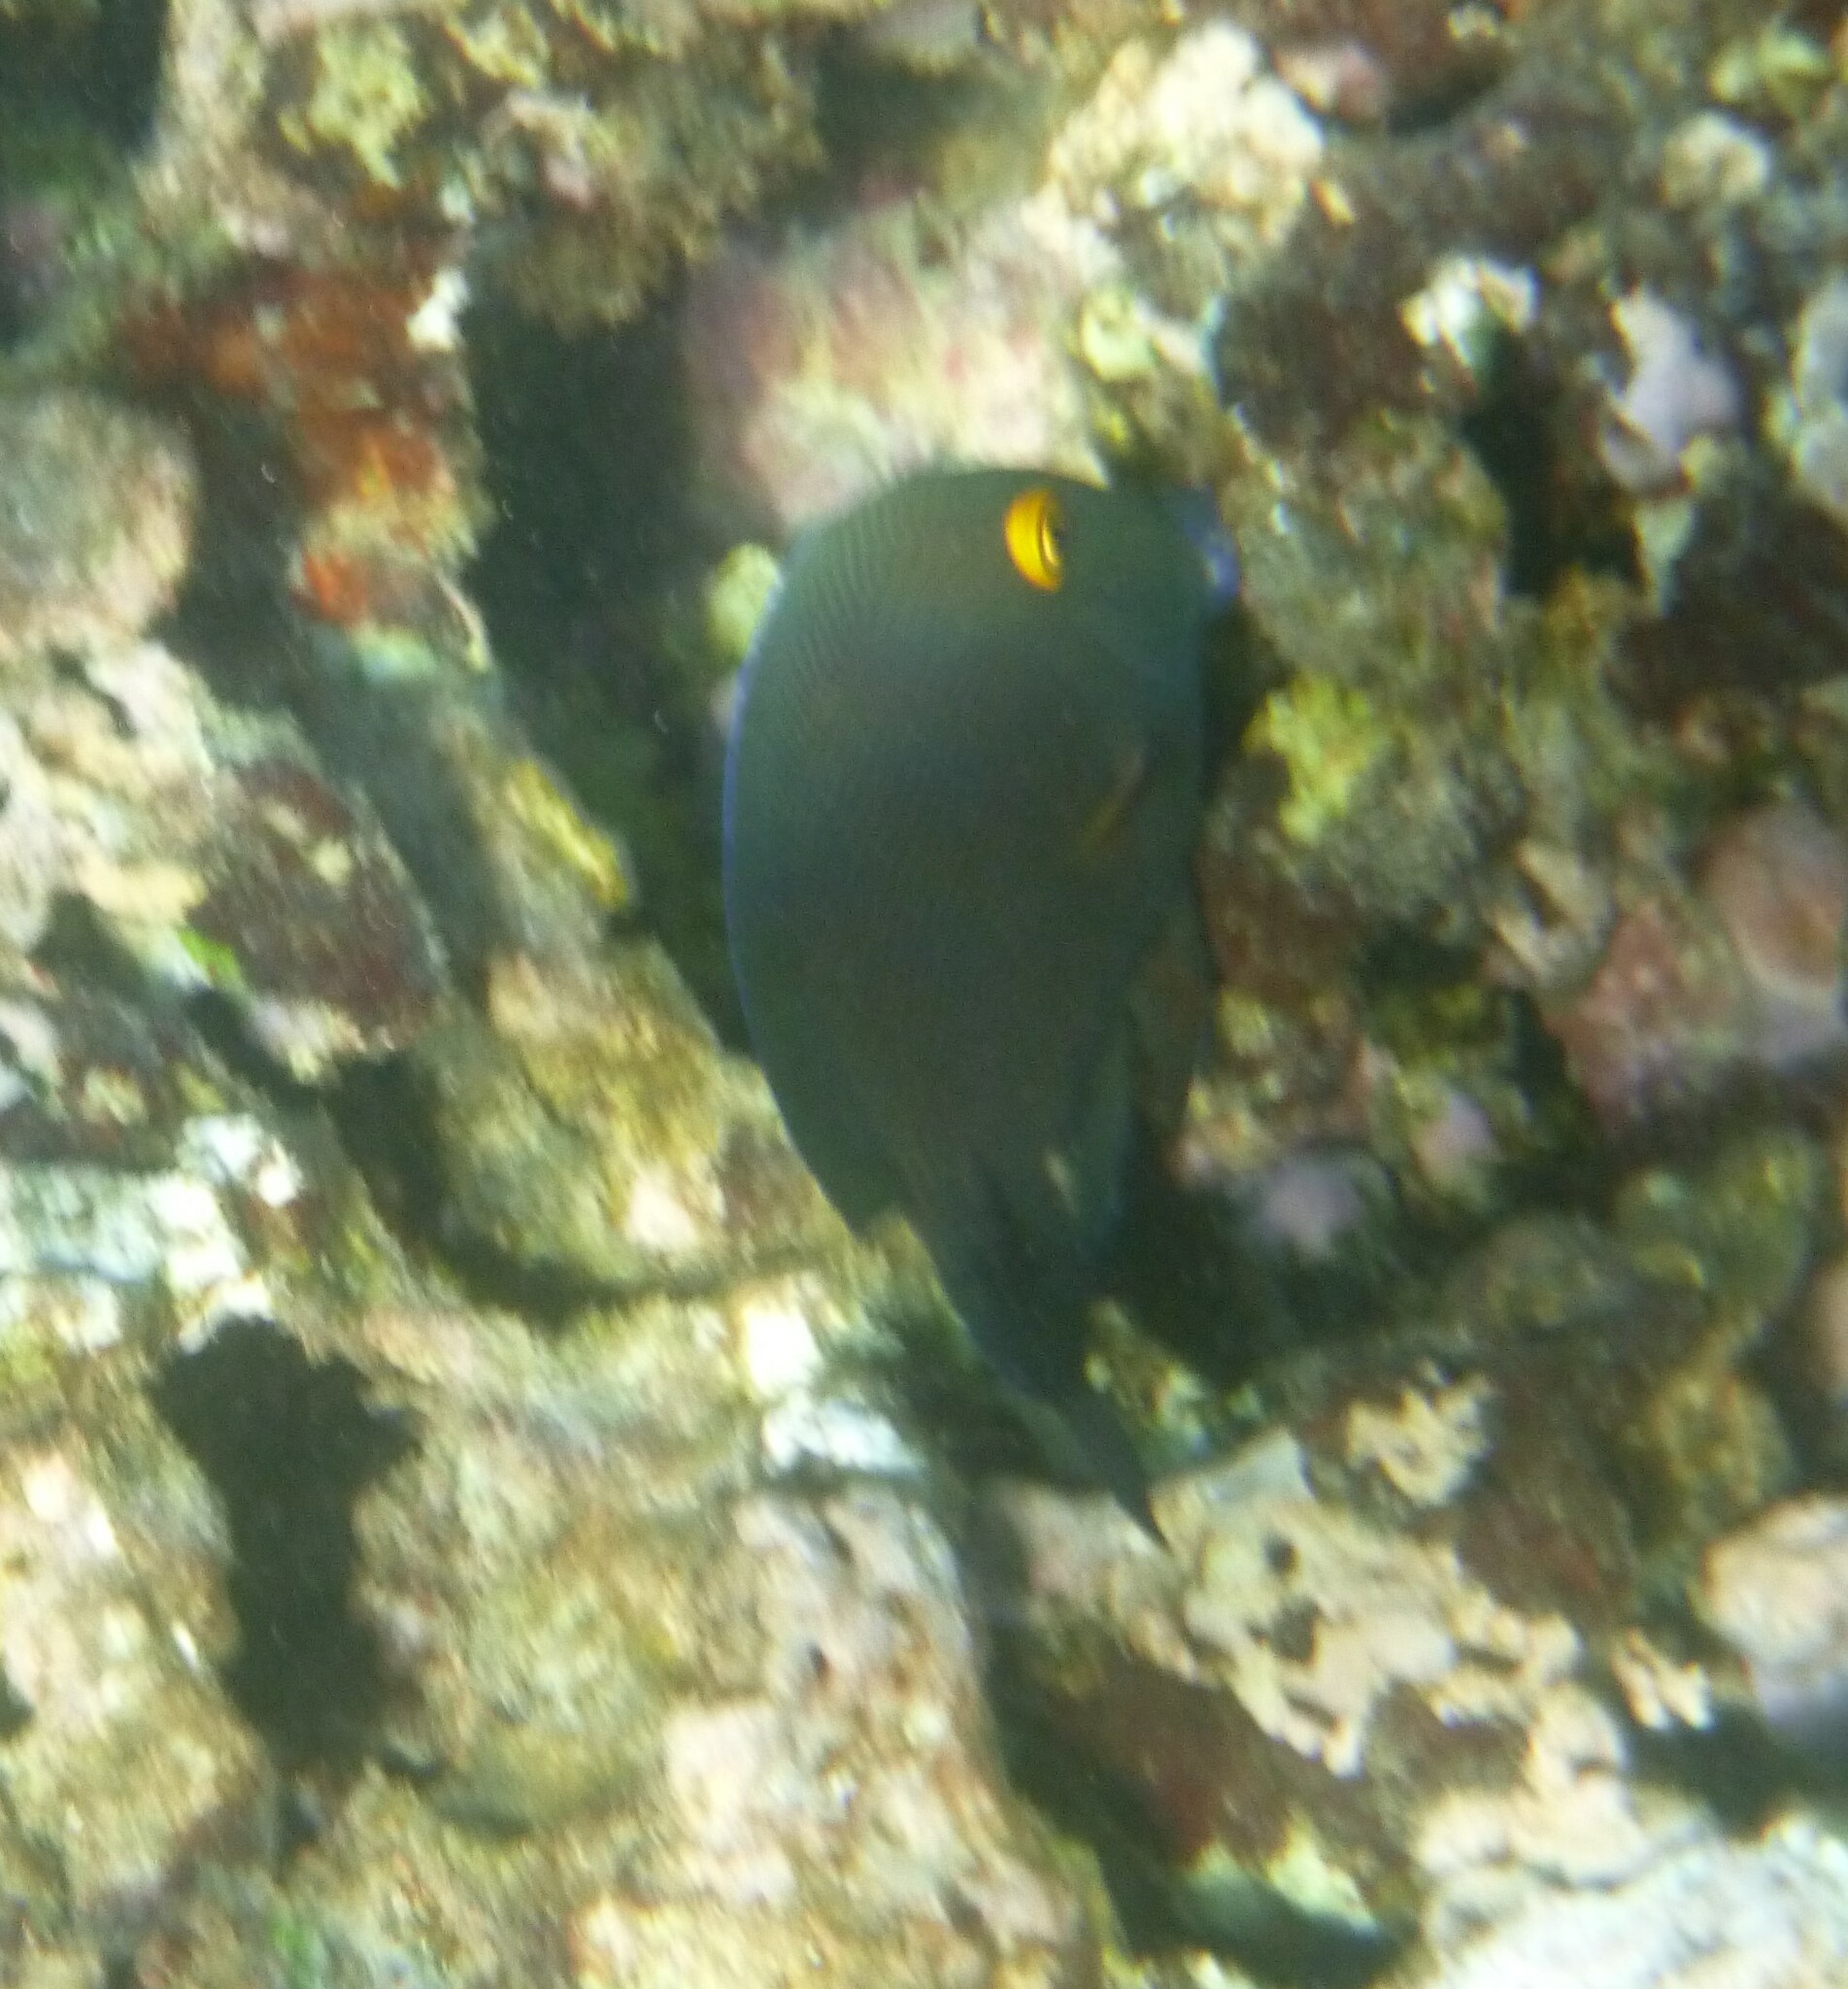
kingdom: Animalia
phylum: Chordata
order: Perciformes
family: Acanthuridae
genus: Ctenochaetus
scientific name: Ctenochaetus strigosus
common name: Bristletoothed surgeonfish
